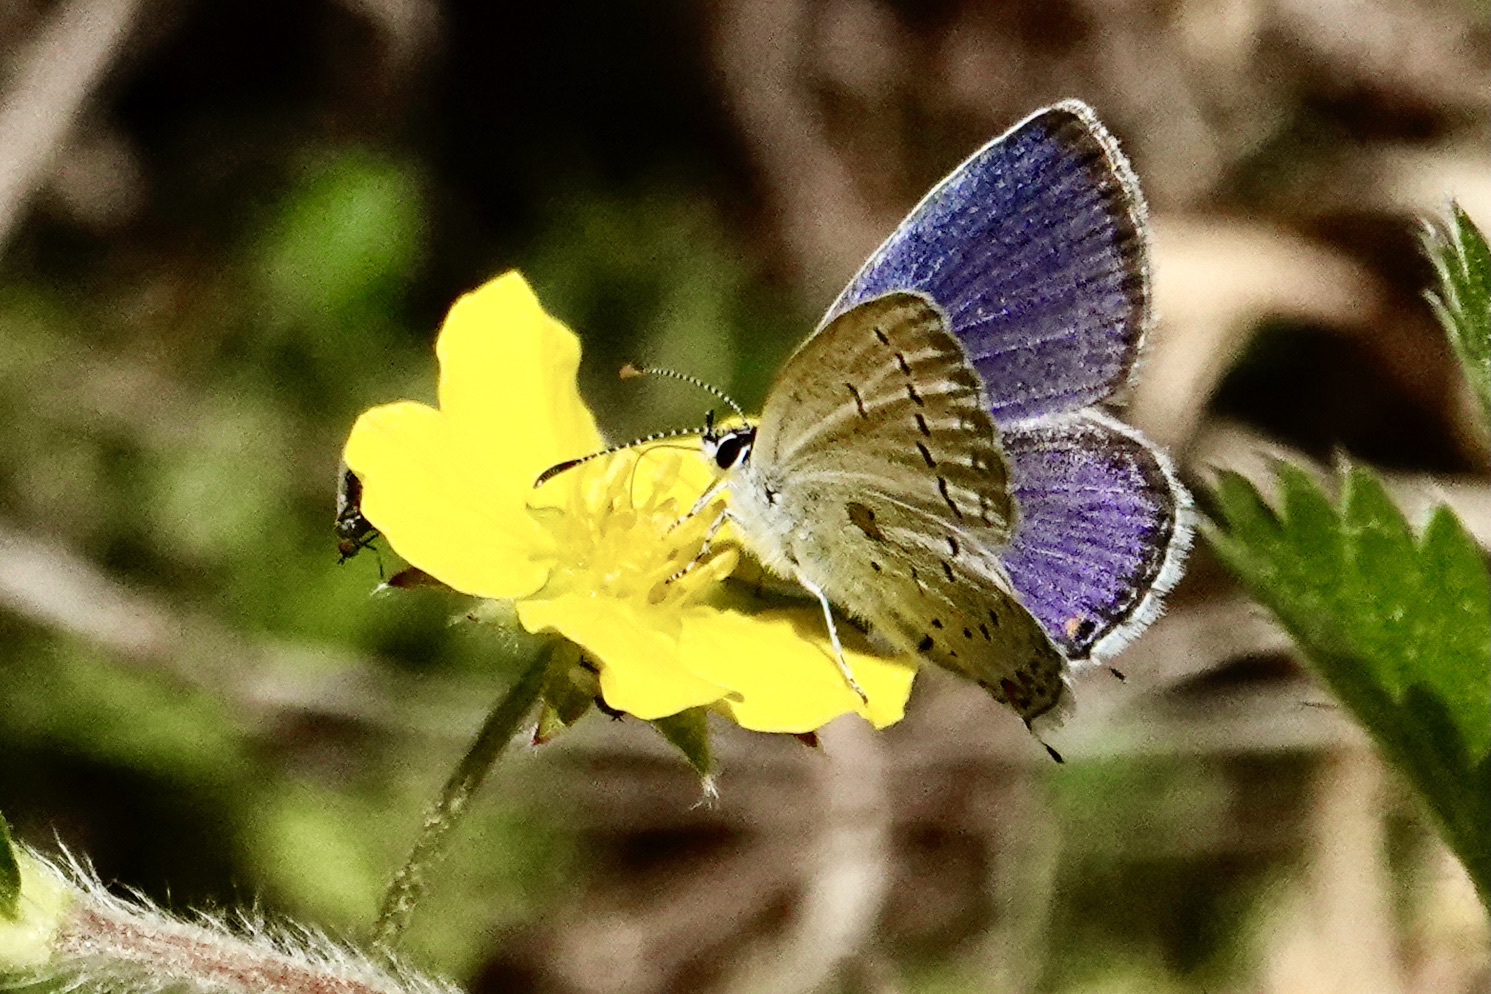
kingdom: Animalia
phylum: Arthropoda
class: Insecta
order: Lepidoptera
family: Lycaenidae
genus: Elkalyce
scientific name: Elkalyce comyntas
